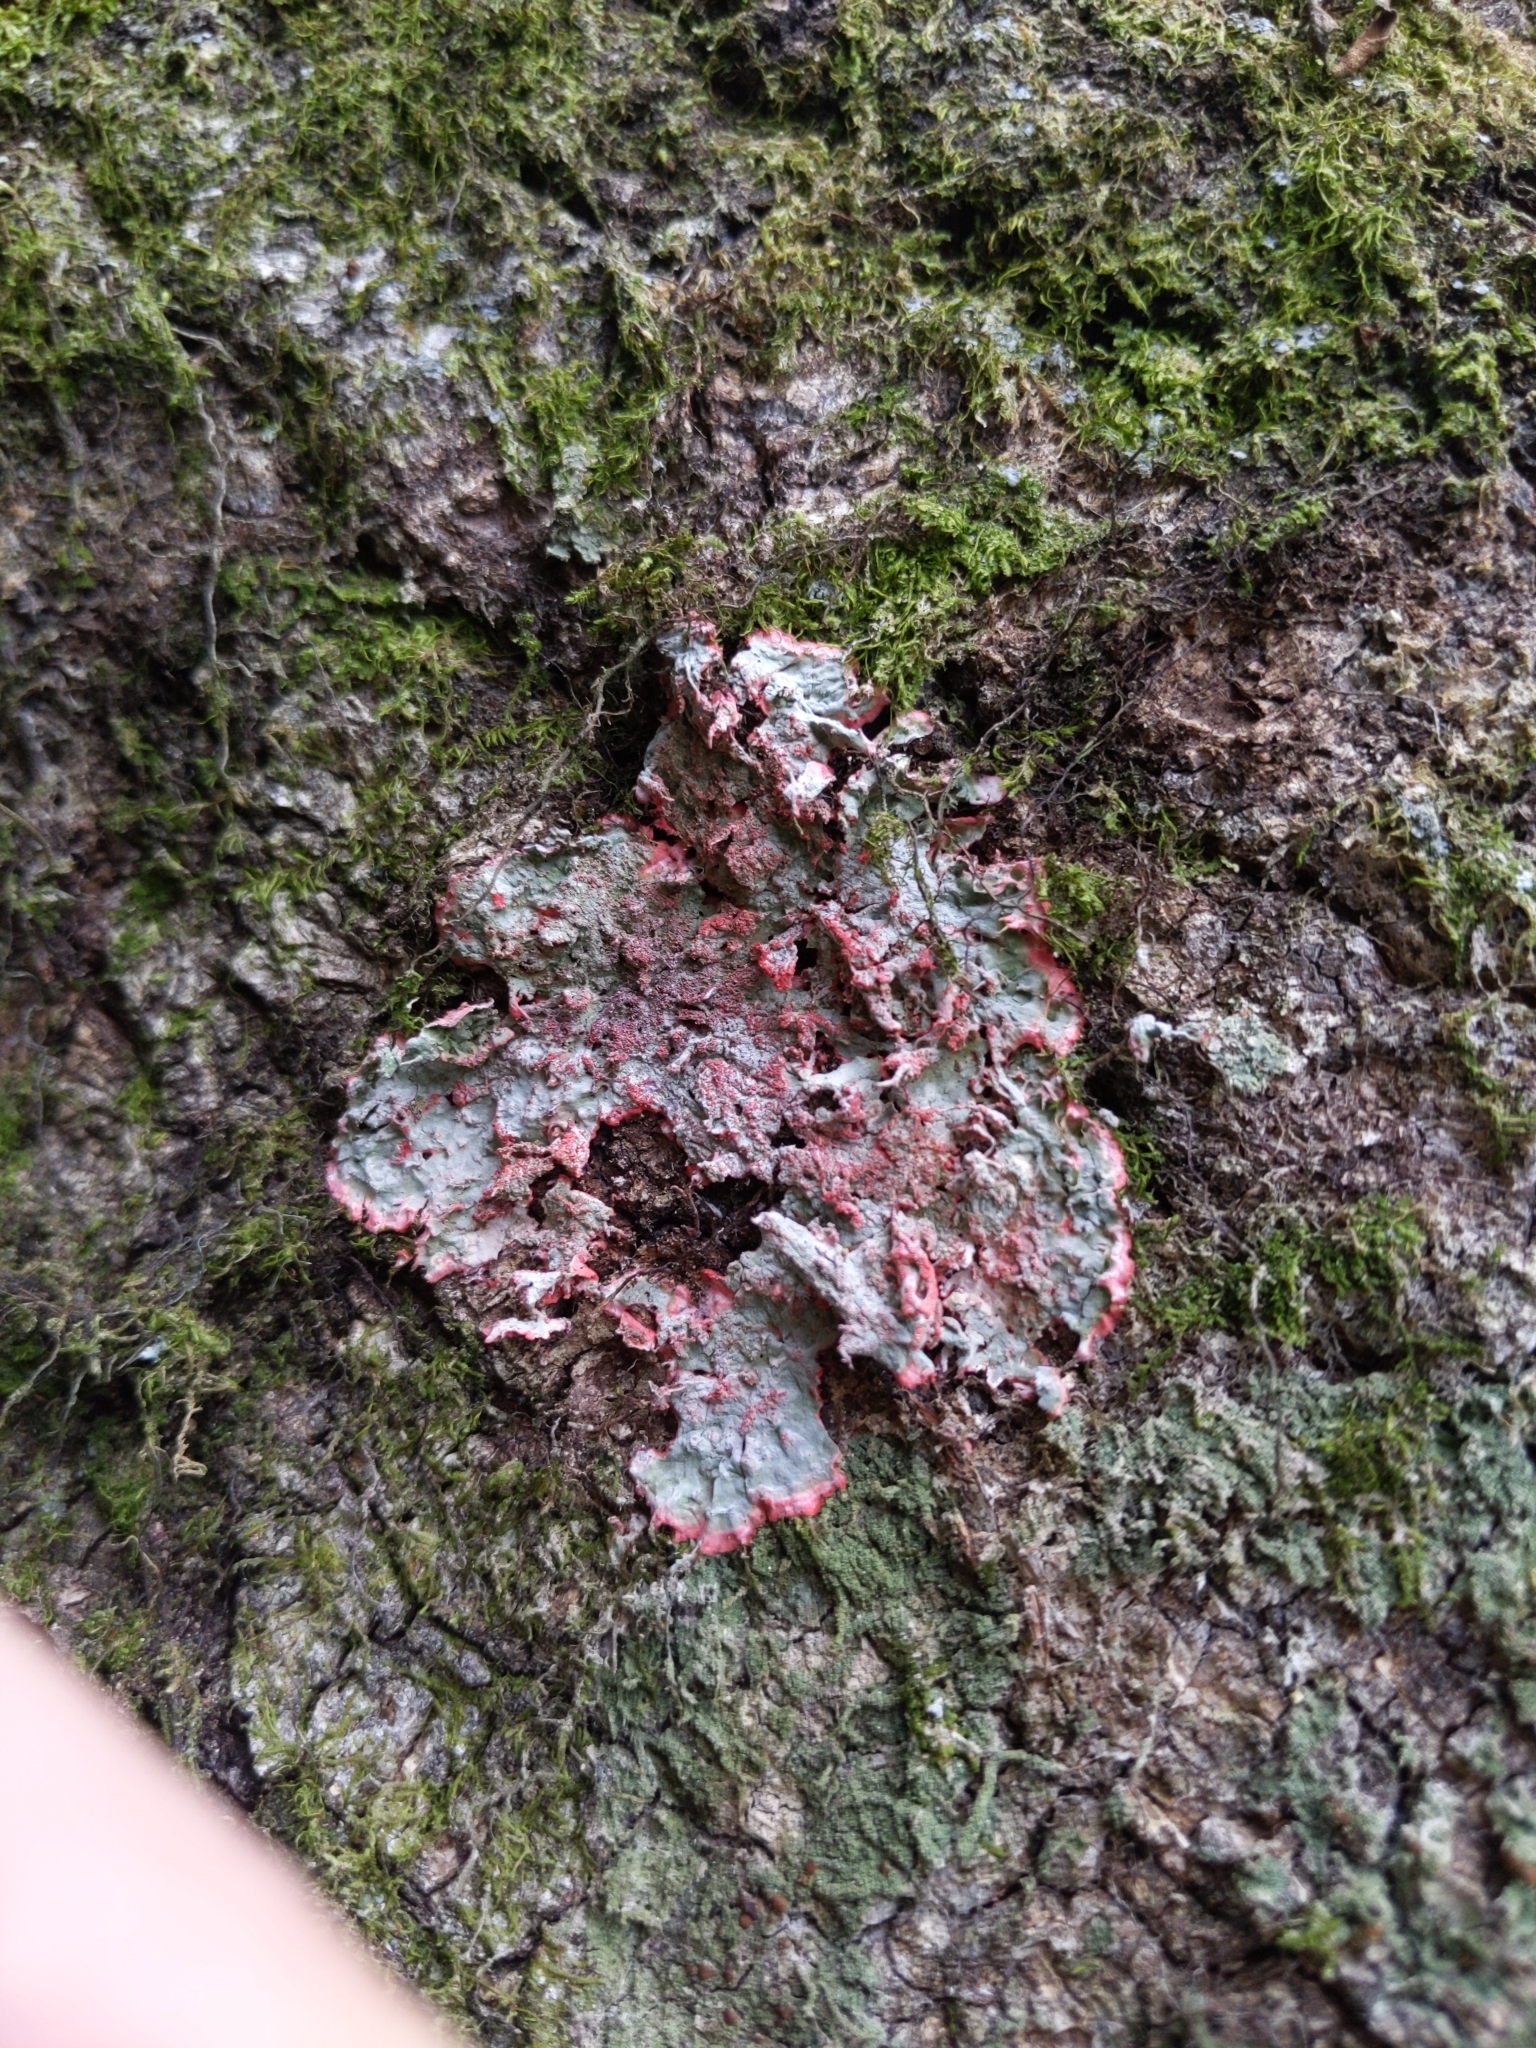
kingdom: Fungi
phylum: Ascomycota
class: Arthoniomycetes
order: Arthoniales
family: Arthoniaceae
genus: Herpothallon
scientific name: Herpothallon rubrocinctum
